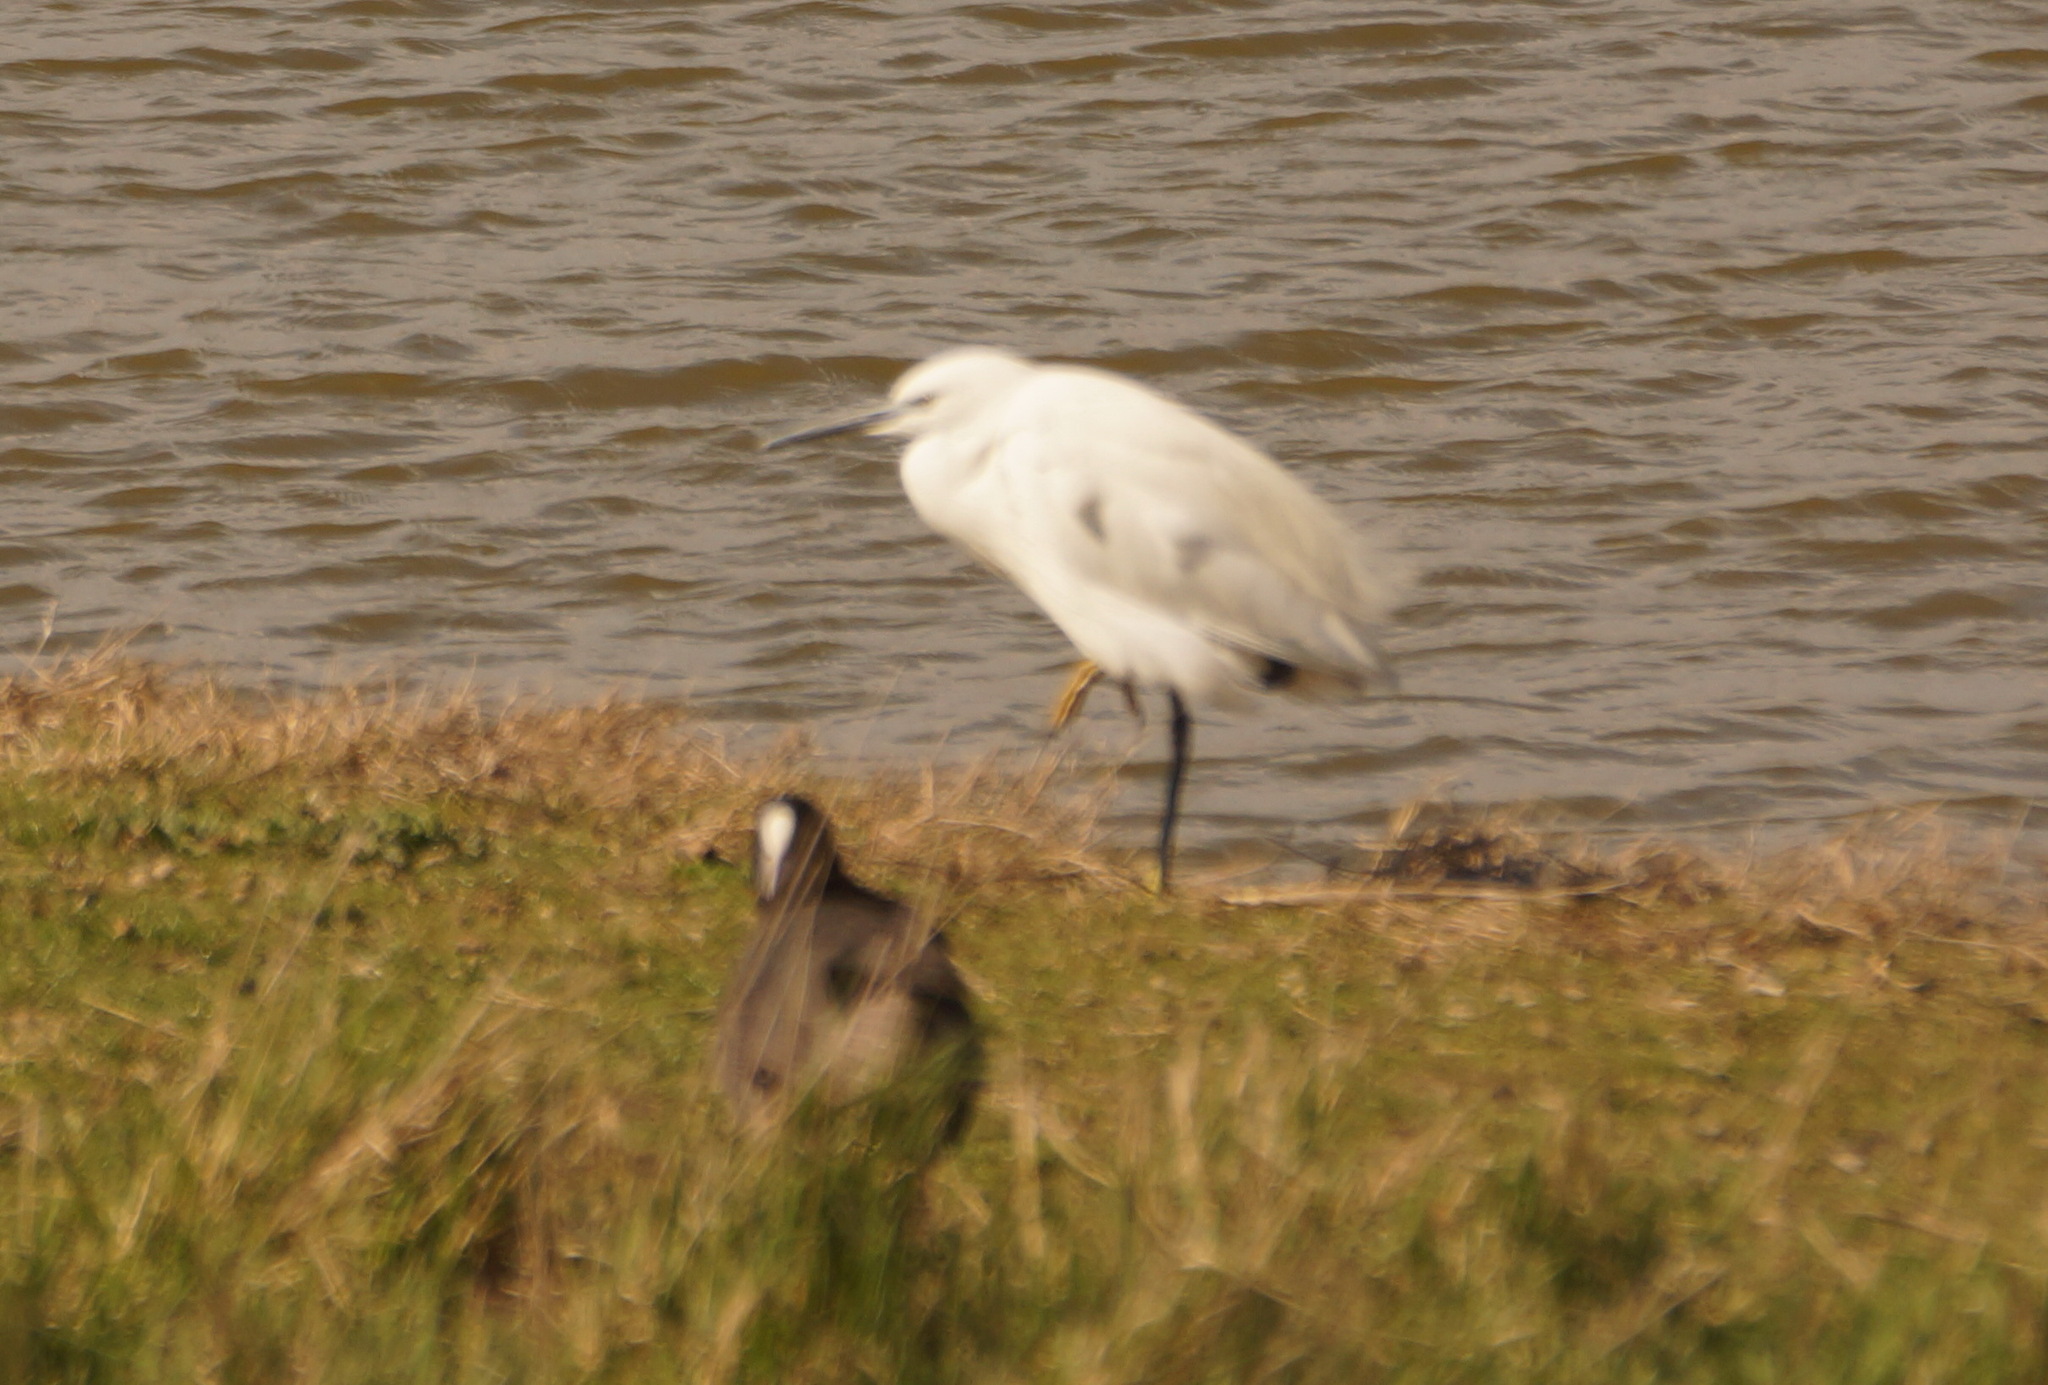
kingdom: Animalia
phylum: Chordata
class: Aves
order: Pelecaniformes
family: Ardeidae
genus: Egretta
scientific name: Egretta garzetta
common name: Little egret
